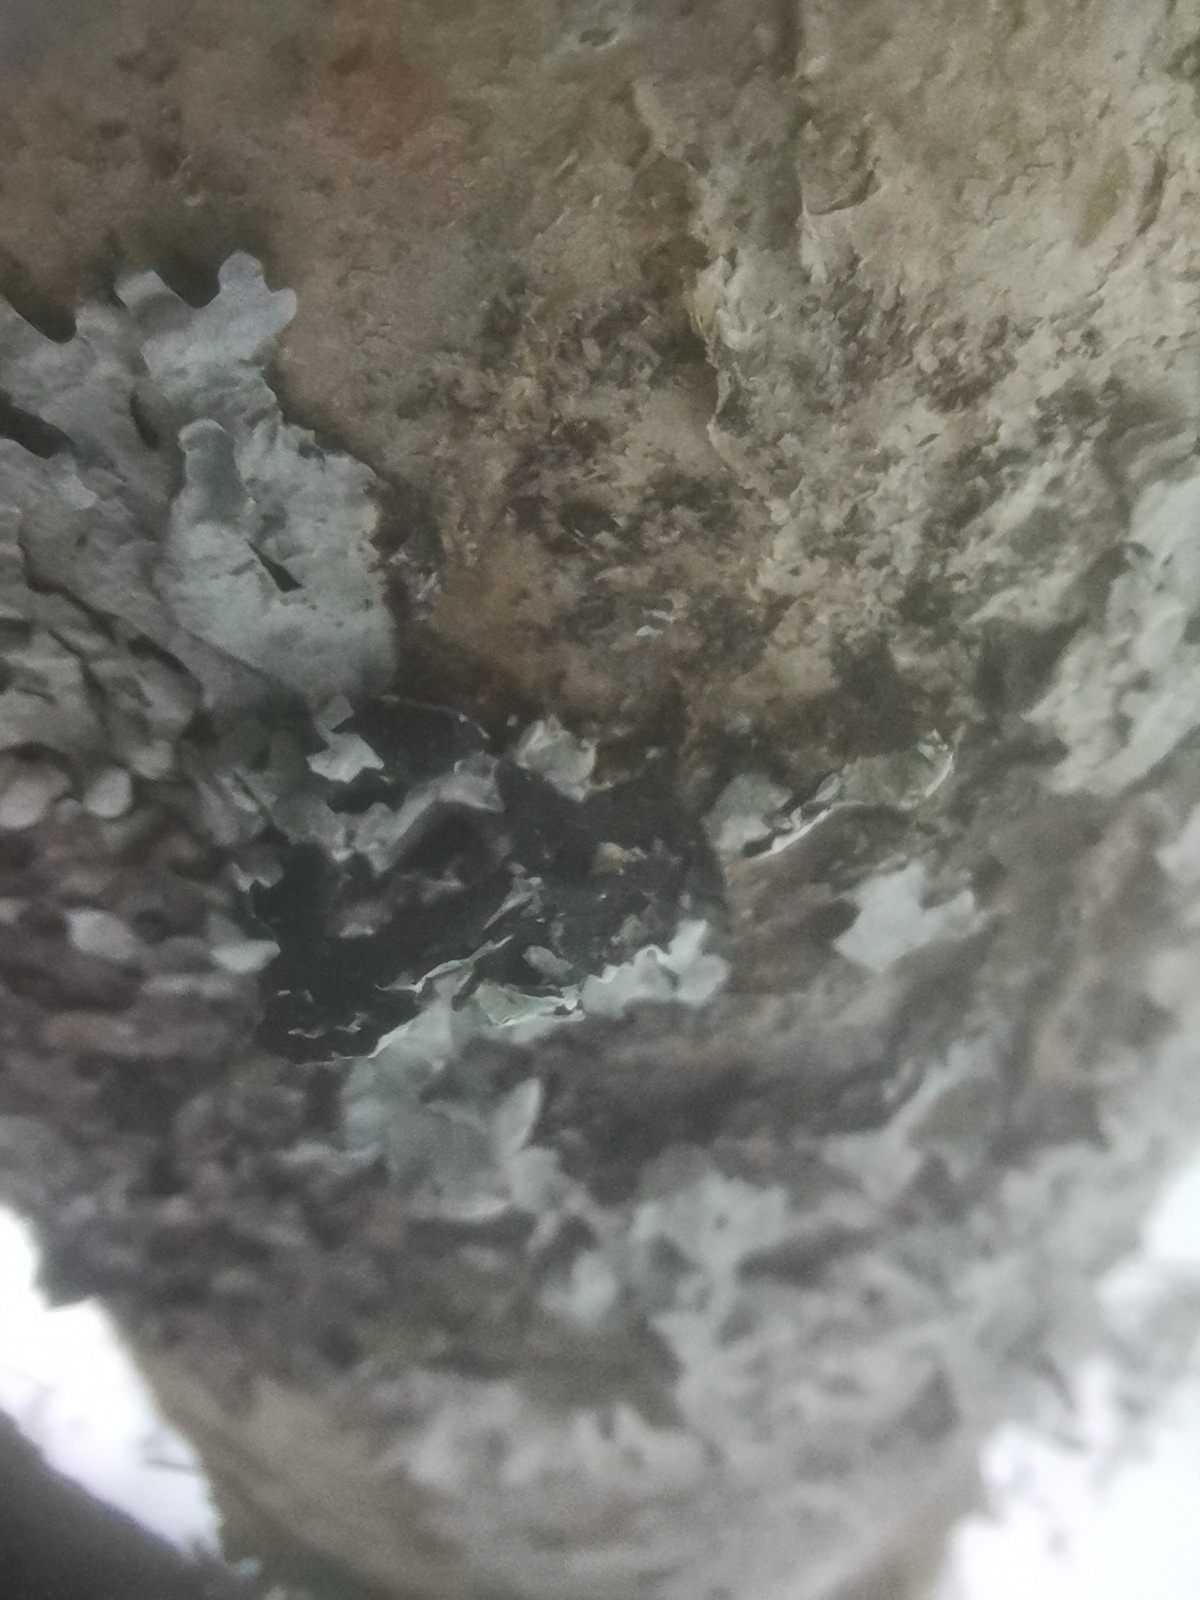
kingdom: Fungi
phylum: Ascomycota
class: Lecanoromycetes
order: Lecanorales
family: Parmeliaceae
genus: Parmelia
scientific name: Parmelia sulcata
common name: Netted shield lichen
